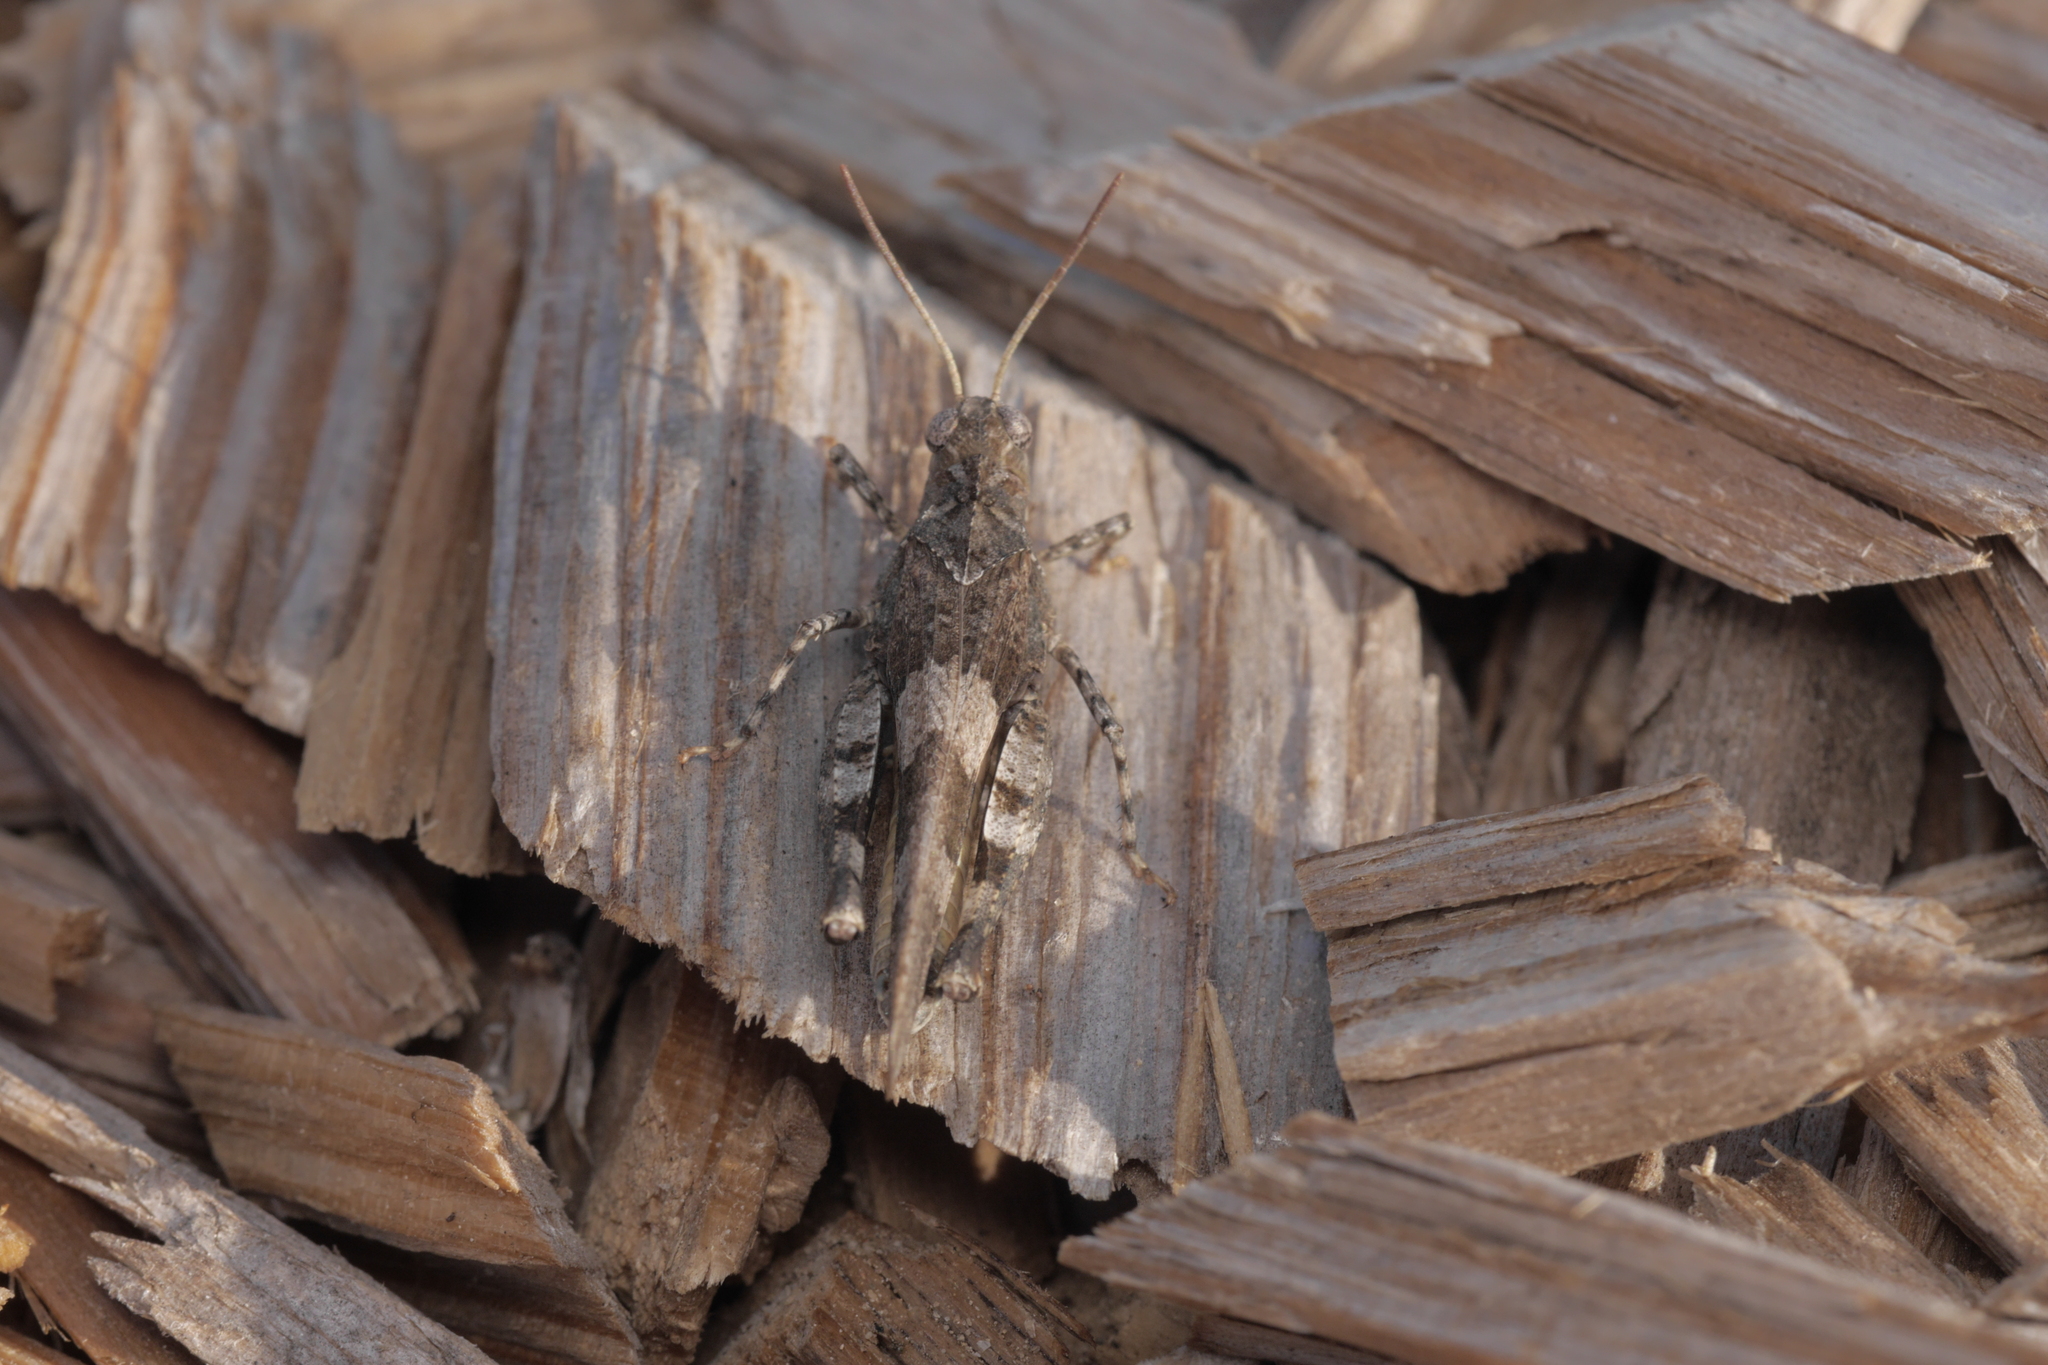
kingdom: Animalia
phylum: Arthropoda
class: Insecta
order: Orthoptera
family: Acrididae
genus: Oedipoda
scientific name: Oedipoda caerulescens
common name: Blue-winged grasshopper
